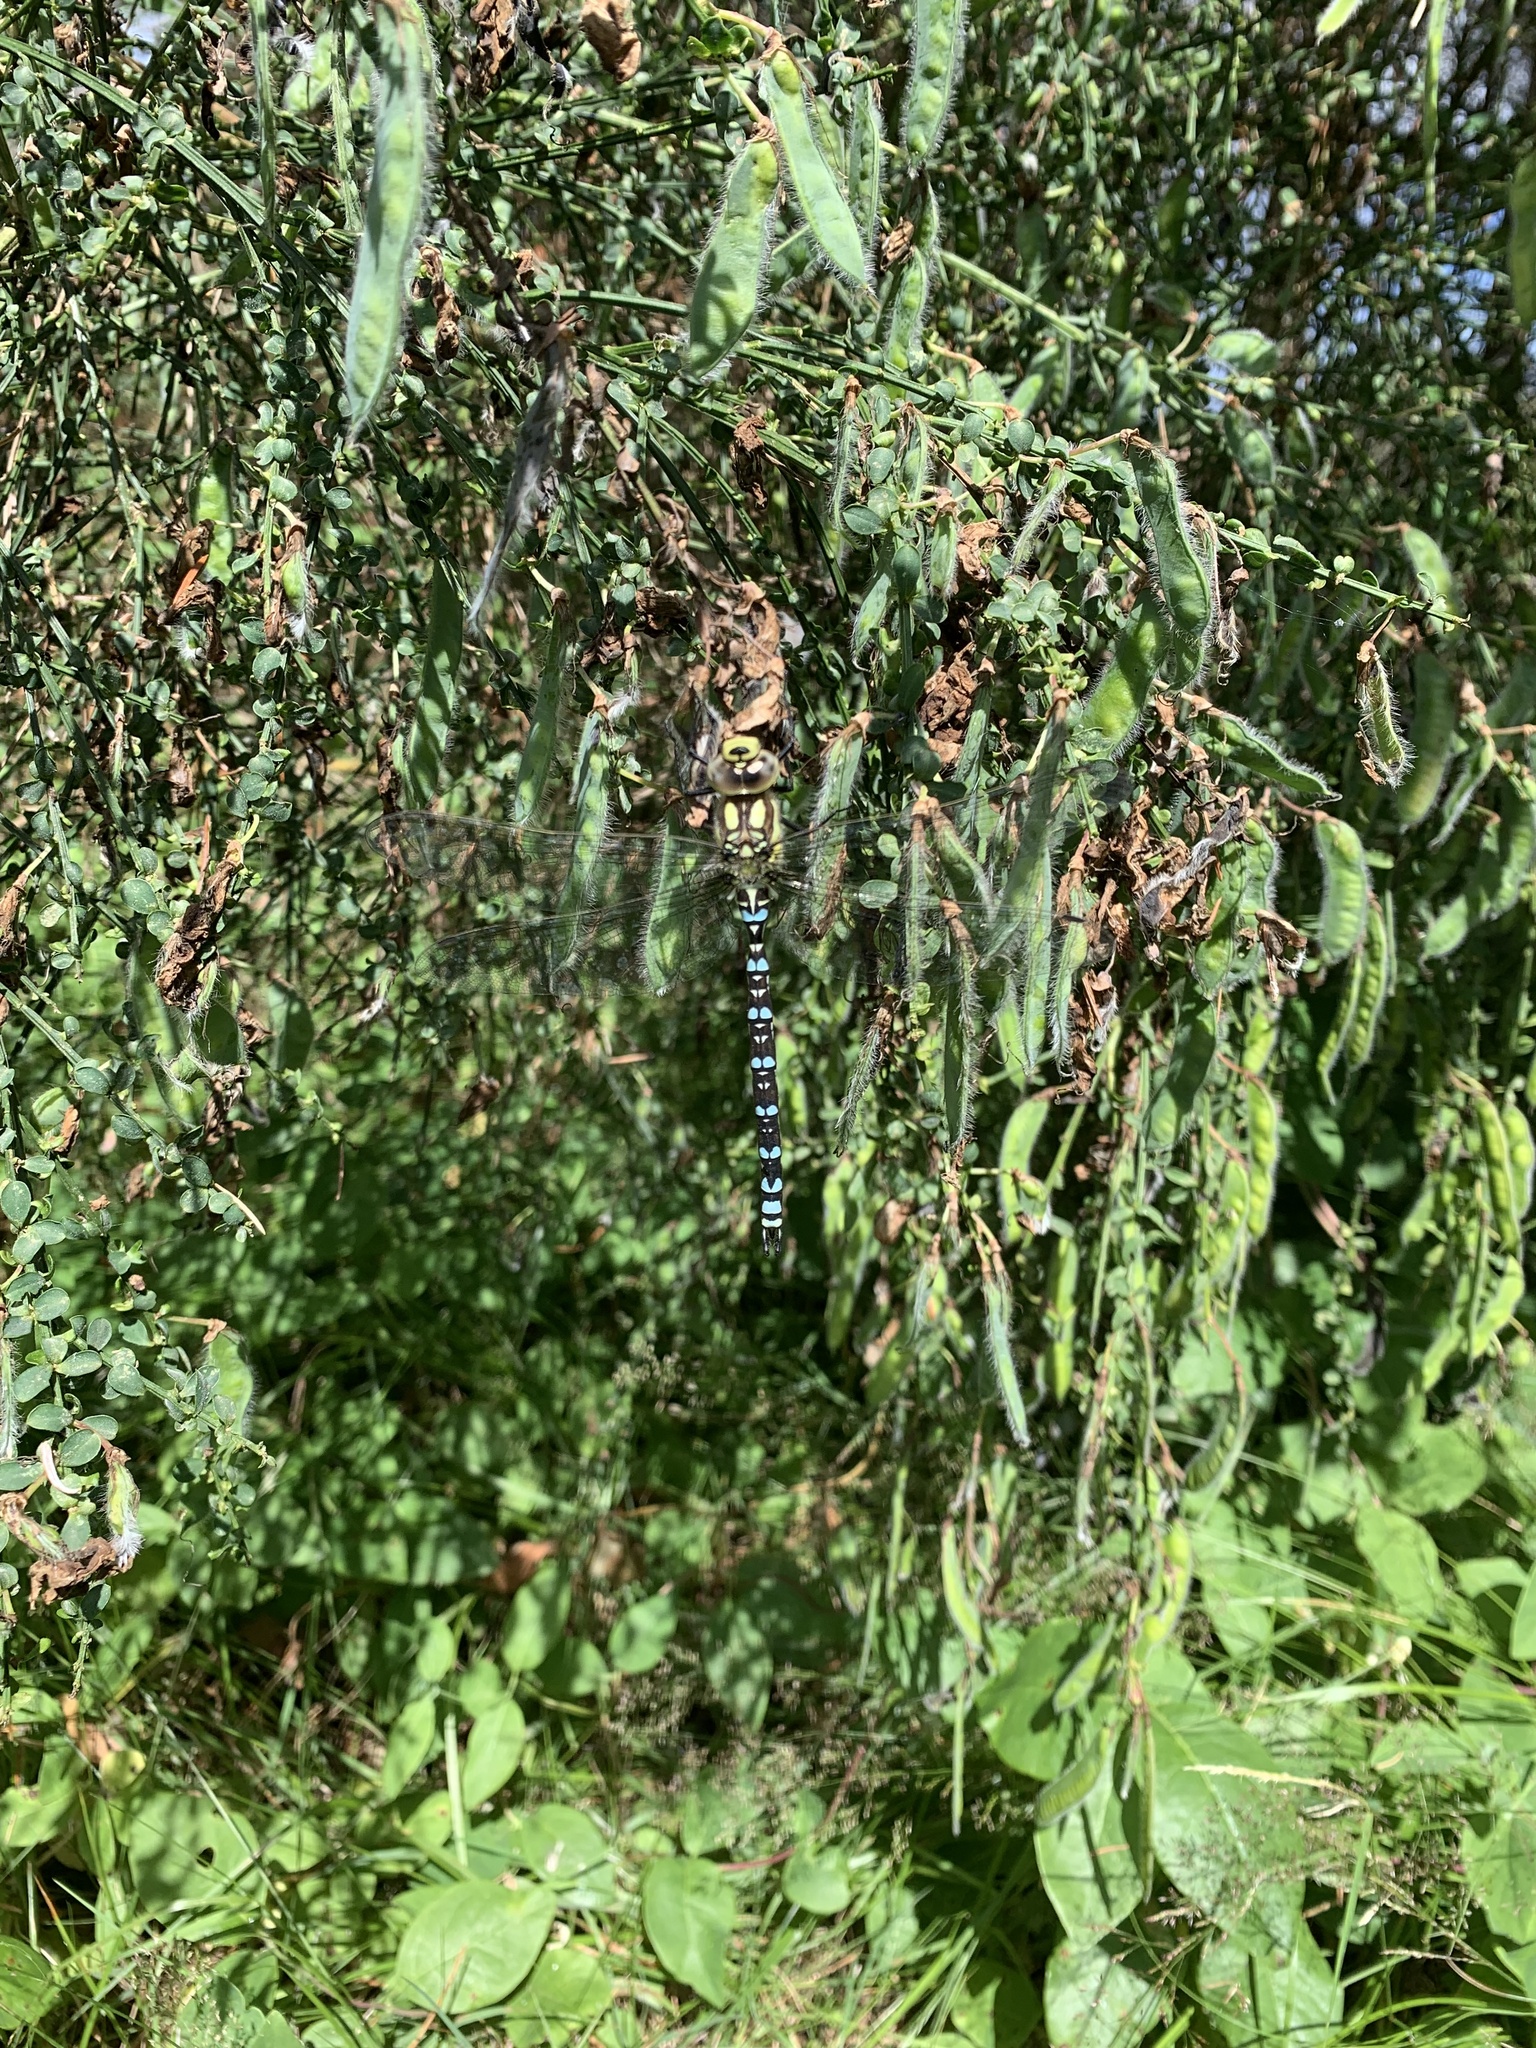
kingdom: Animalia
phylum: Arthropoda
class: Insecta
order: Odonata
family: Aeshnidae
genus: Aeshna
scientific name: Aeshna cyanea
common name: Southern hawker
